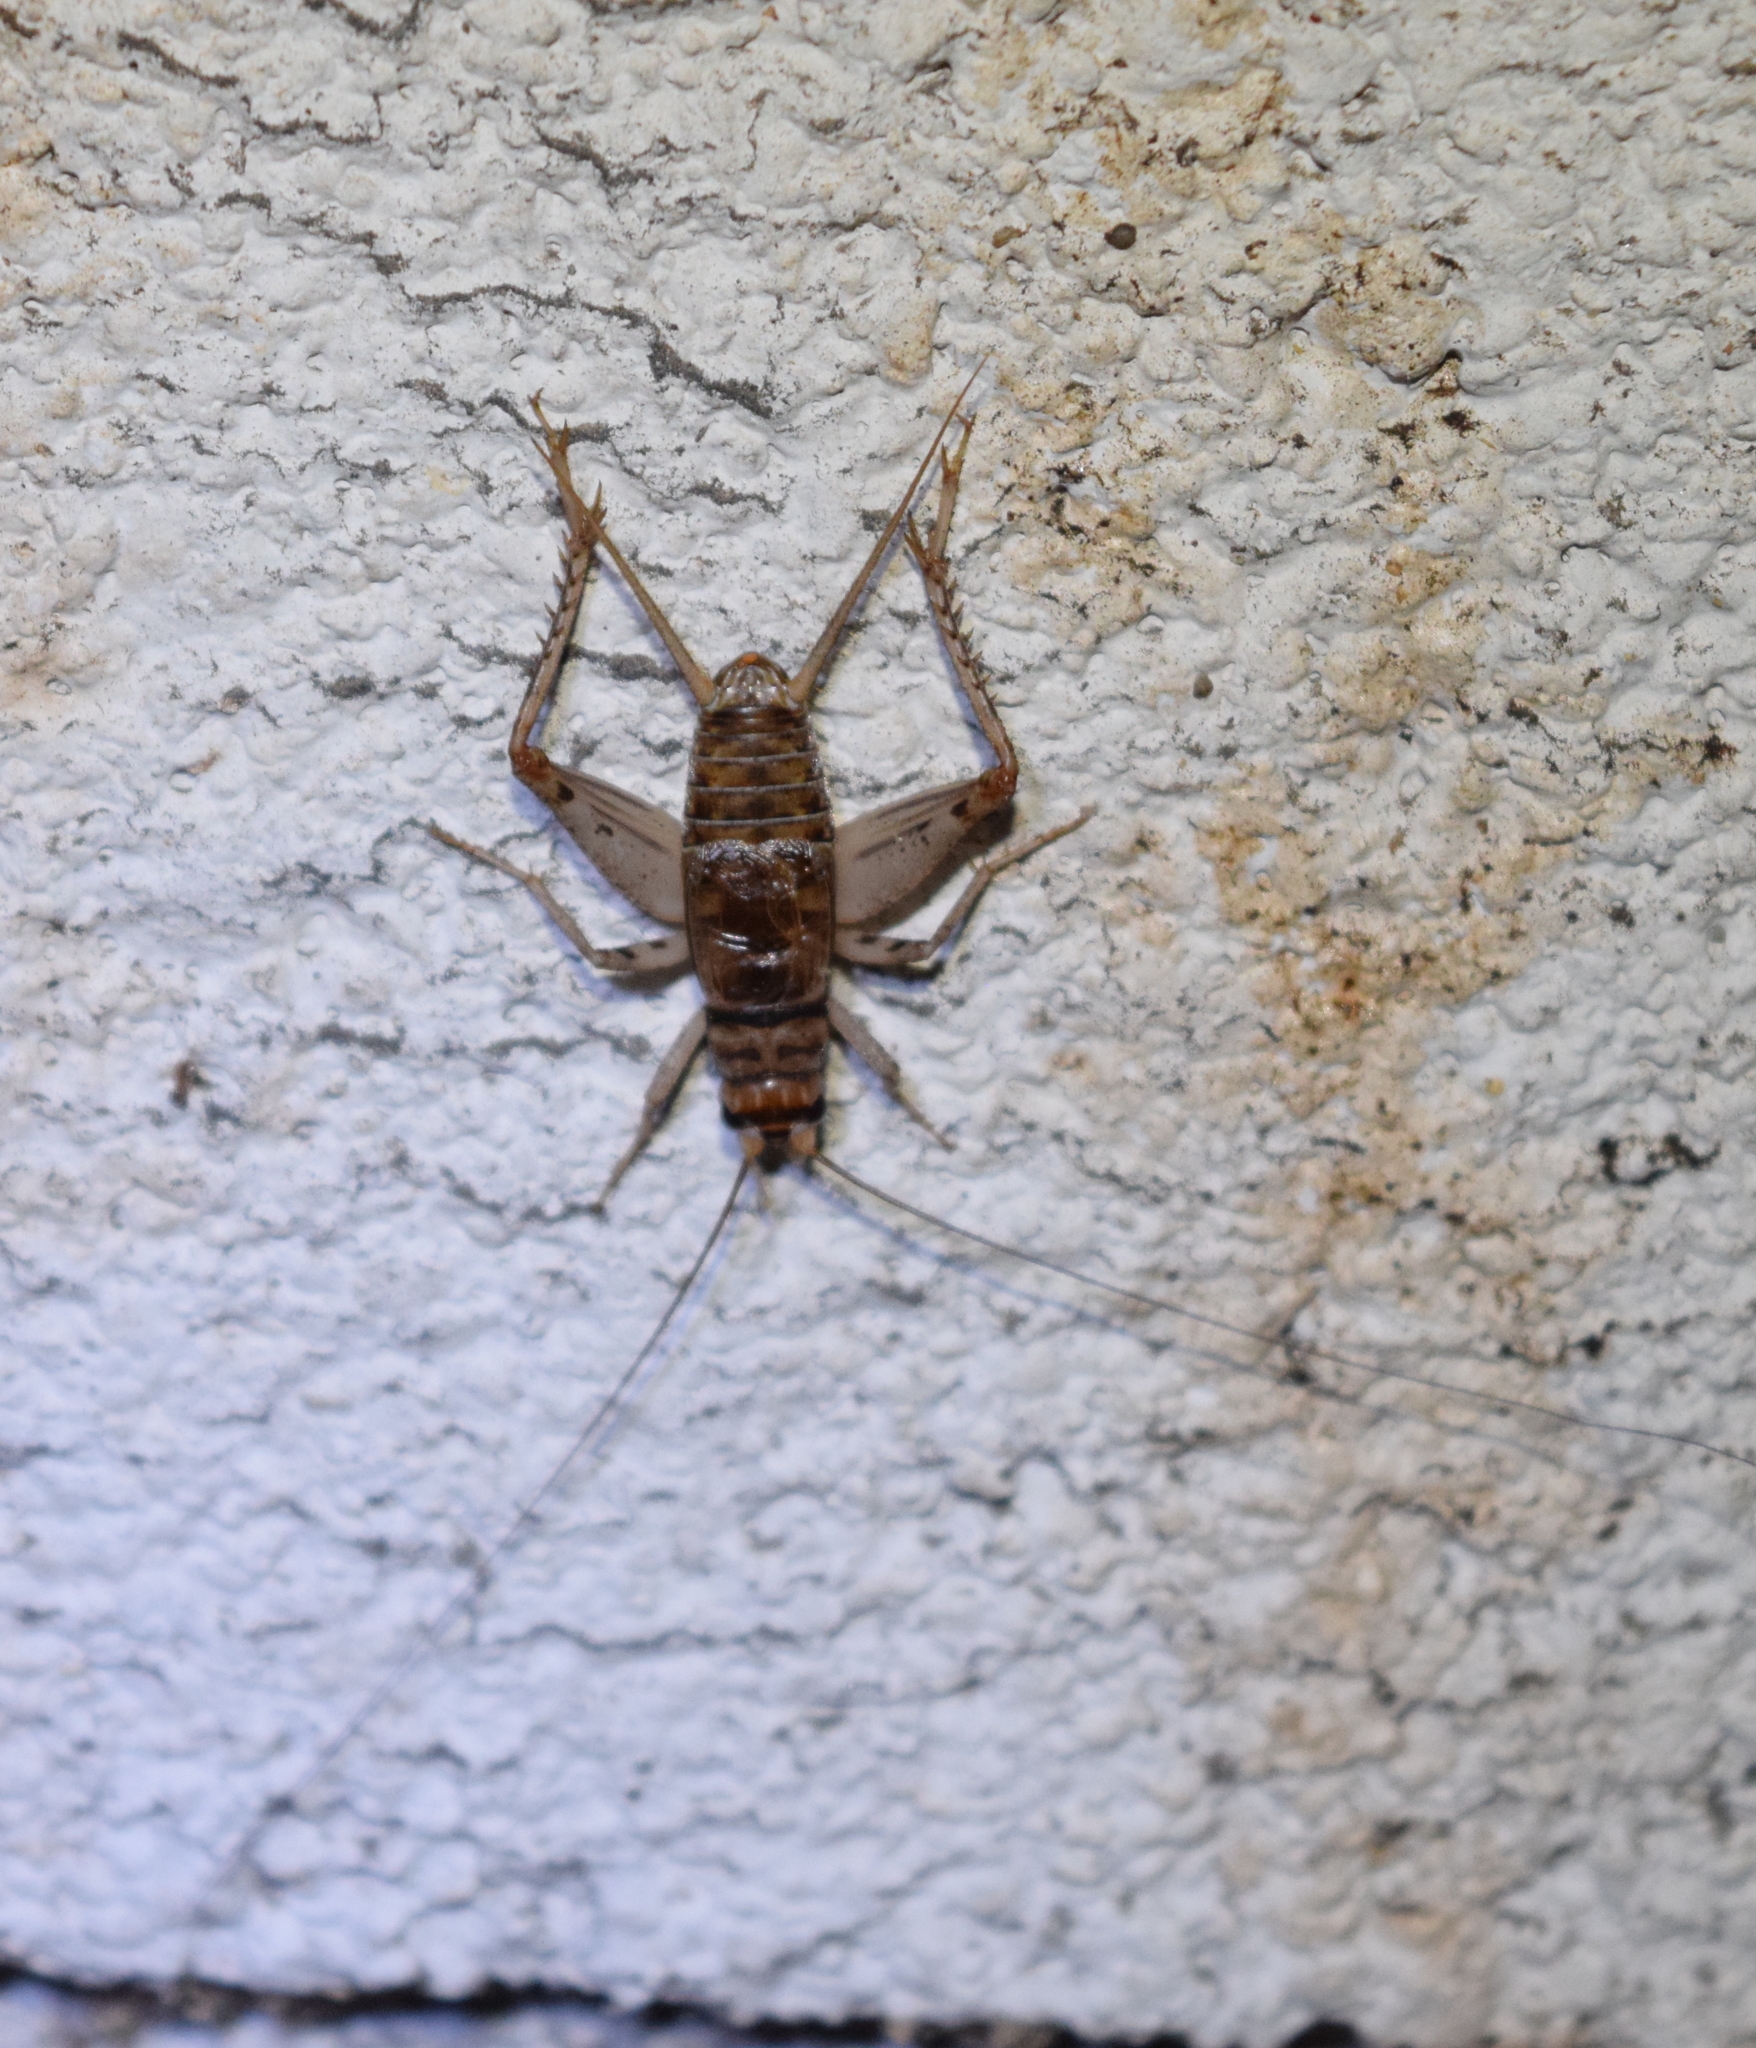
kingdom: Animalia
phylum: Arthropoda
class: Insecta
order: Orthoptera
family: Gryllidae
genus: Gryllodes
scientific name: Gryllodes sigillatus
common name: Tropical house cricket
